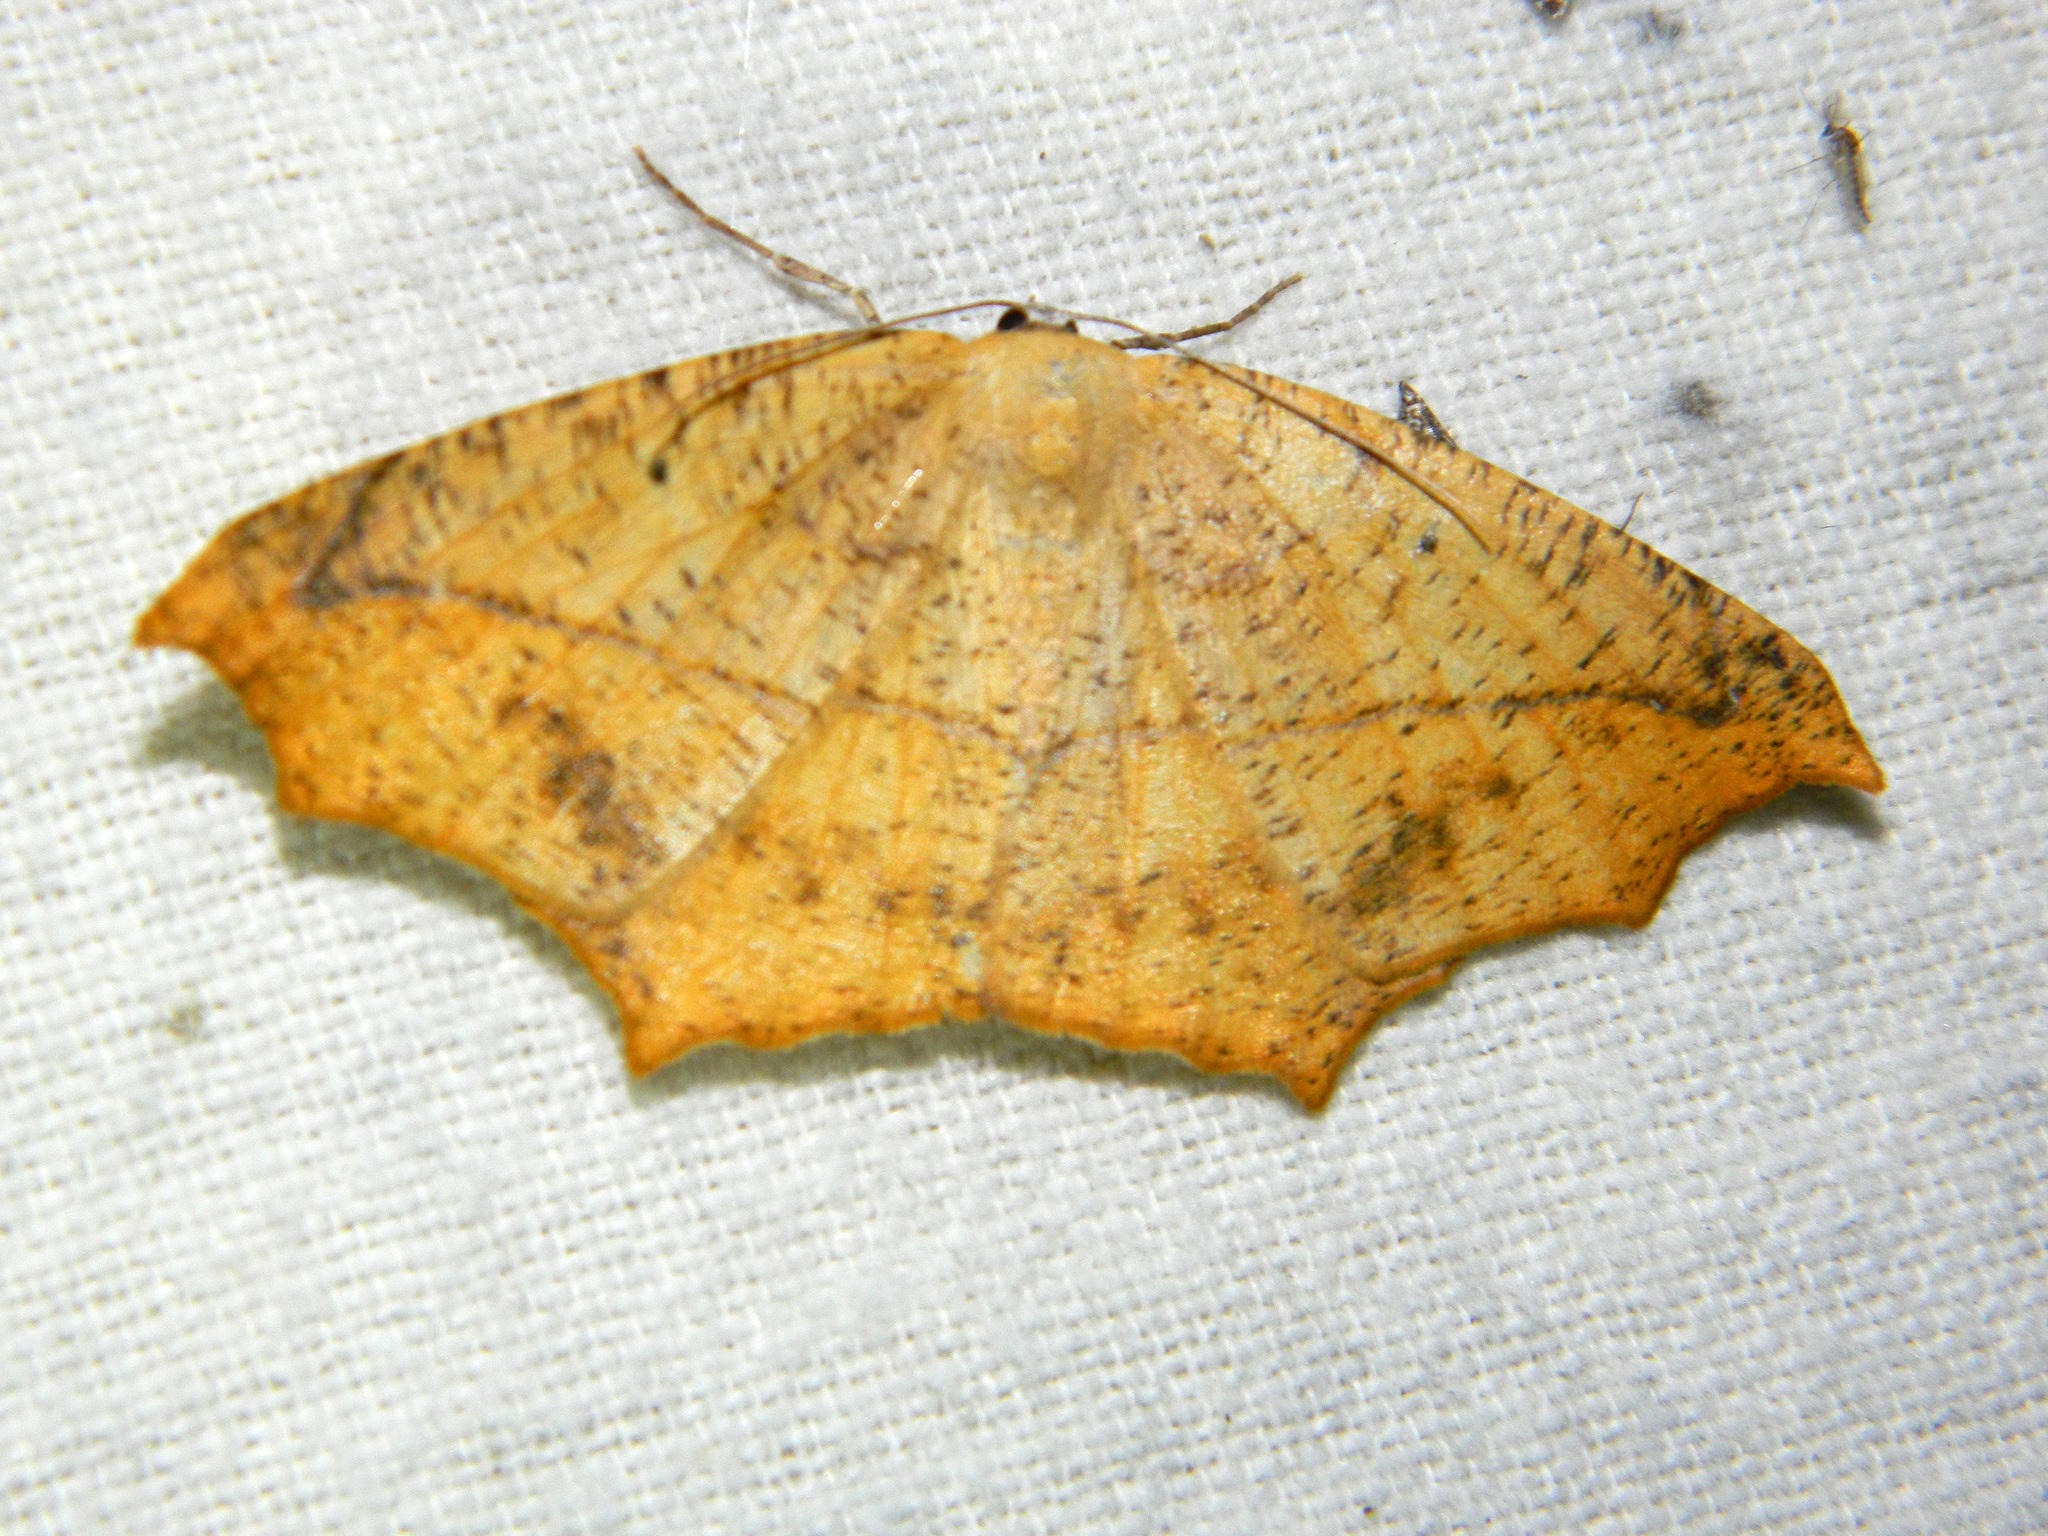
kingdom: Animalia
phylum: Arthropoda
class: Insecta
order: Lepidoptera
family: Geometridae
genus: Prochoerodes
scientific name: Prochoerodes lineola
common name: Large maple spanworm
